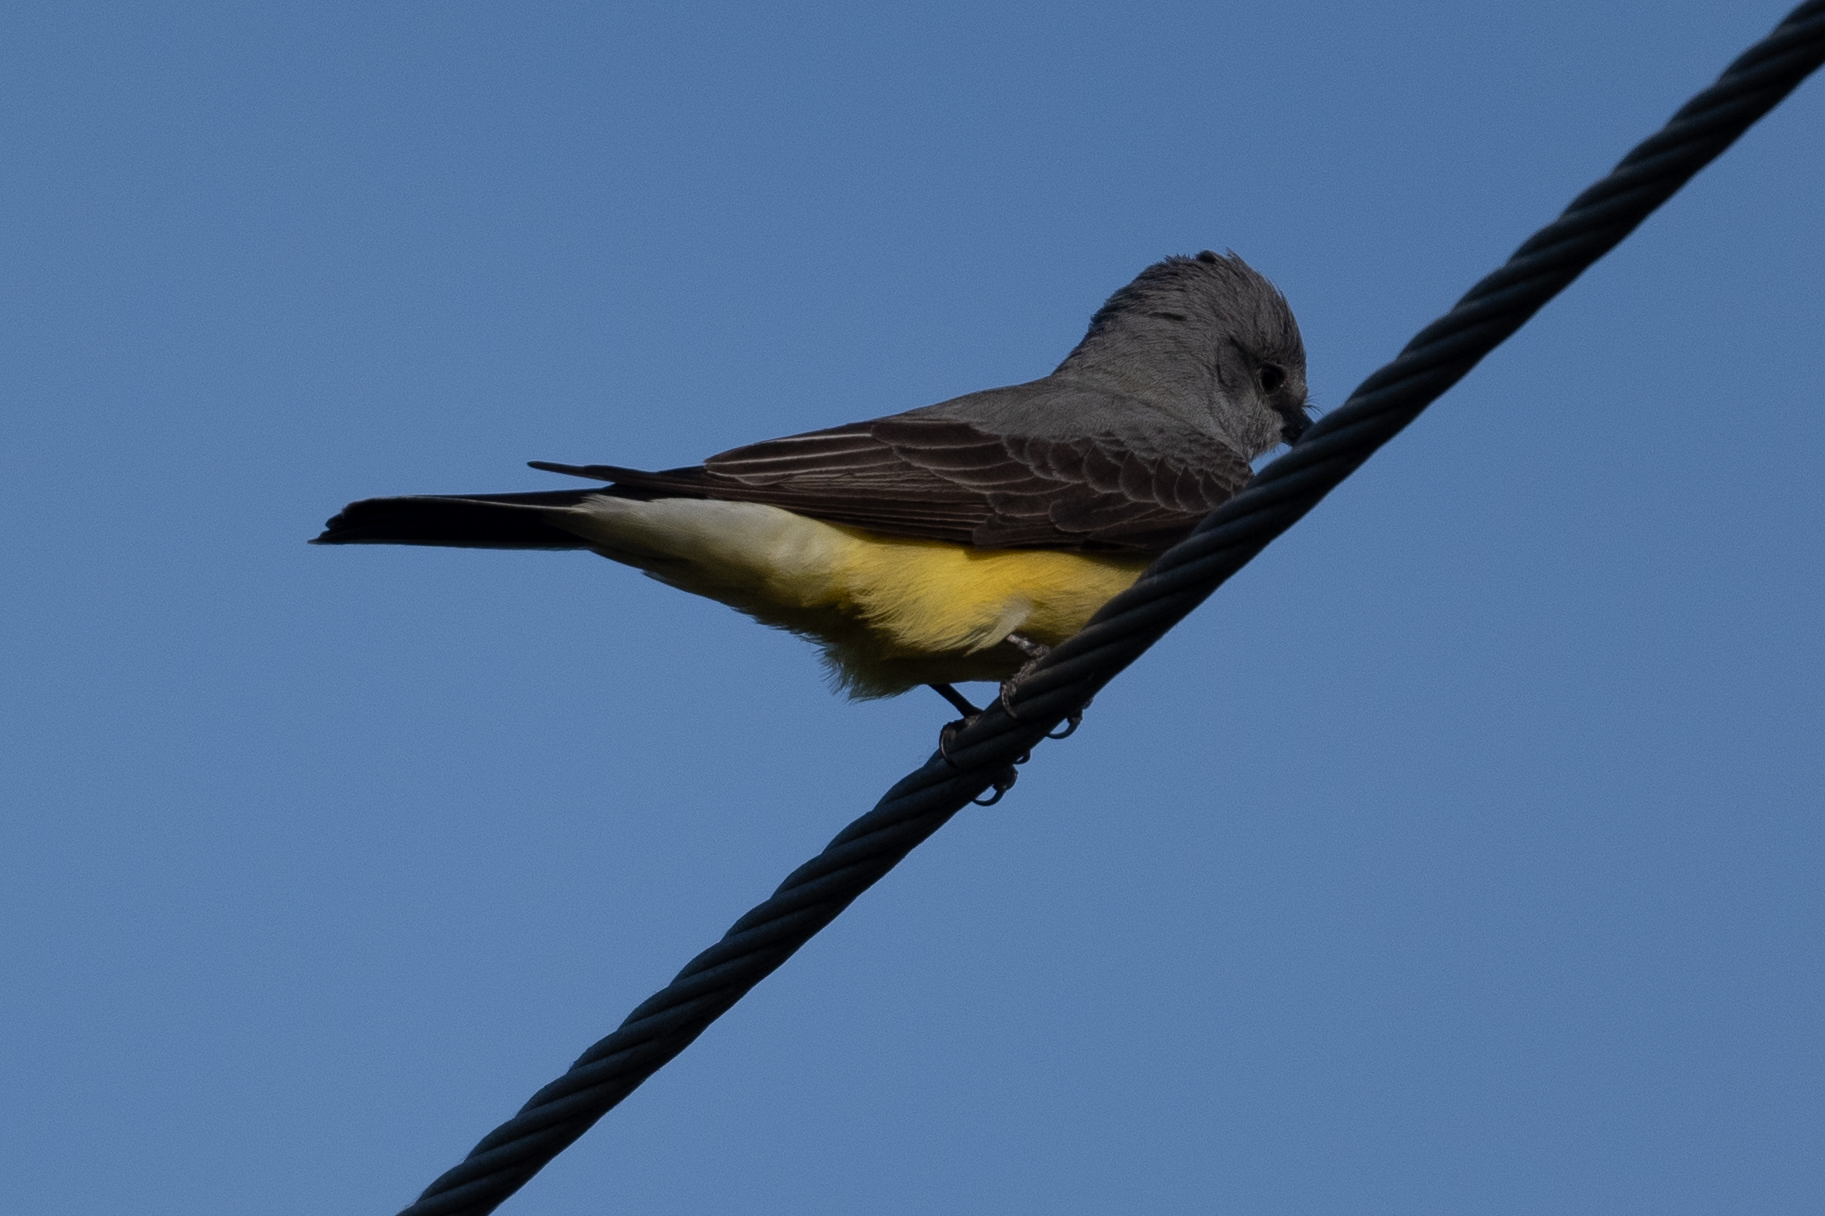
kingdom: Animalia
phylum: Chordata
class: Aves
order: Passeriformes
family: Tyrannidae
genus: Tyrannus
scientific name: Tyrannus verticalis
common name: Western kingbird
